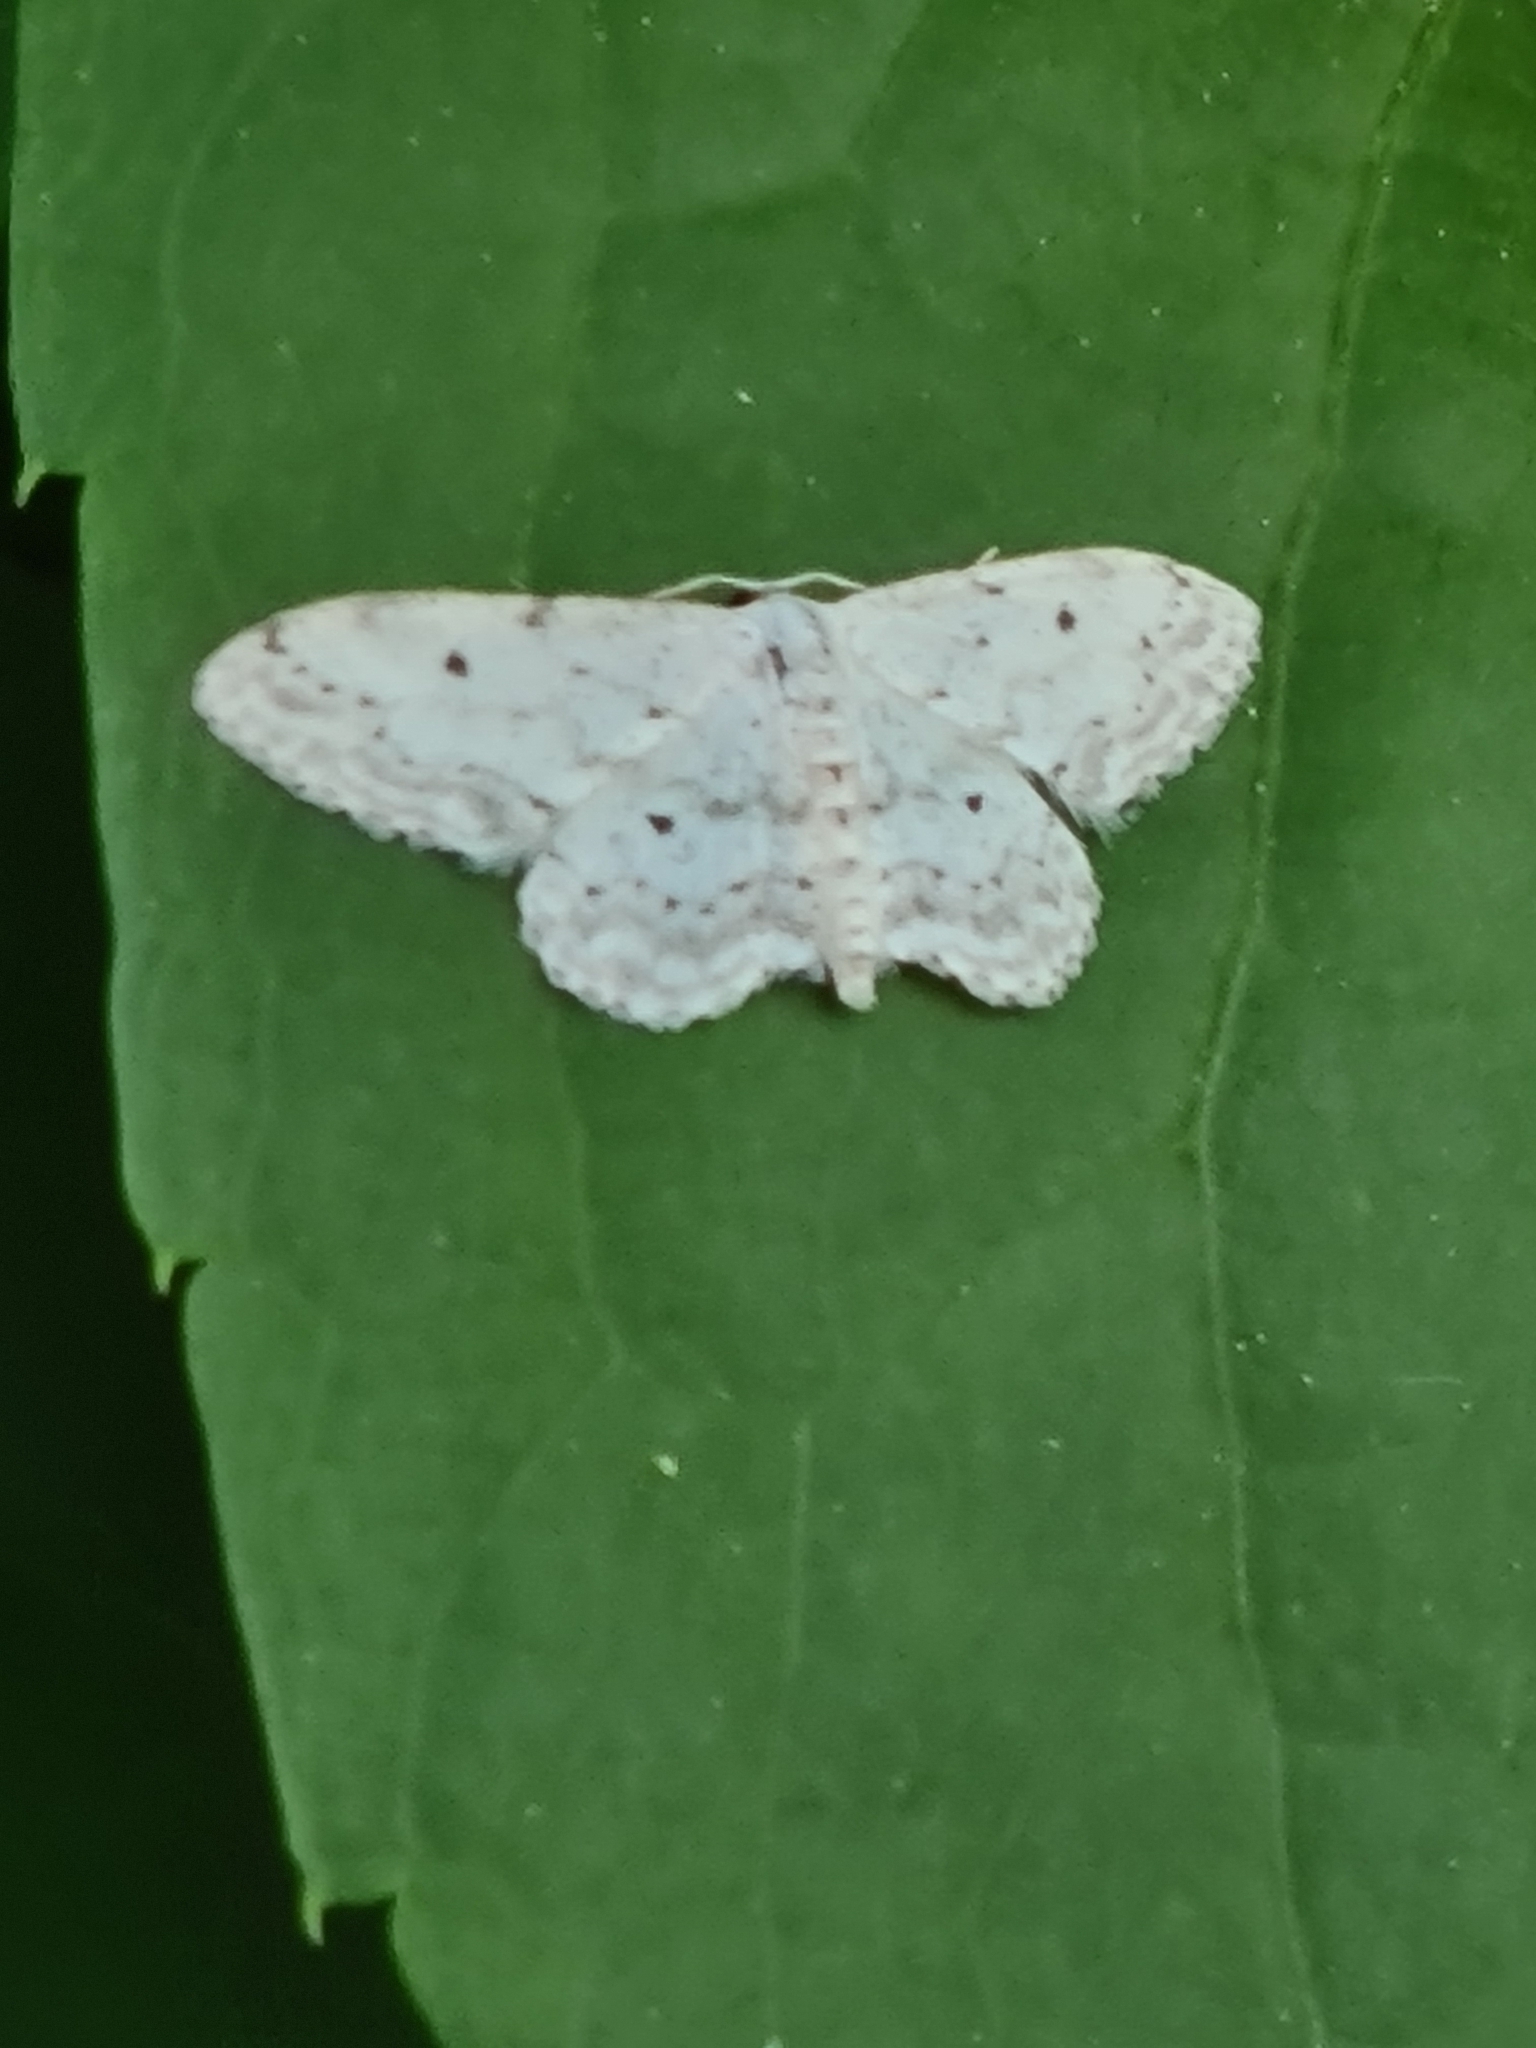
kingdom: Animalia
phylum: Arthropoda
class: Insecta
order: Lepidoptera
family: Geometridae
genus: Idaea
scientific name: Idaea seriata
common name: Small dusty wave
